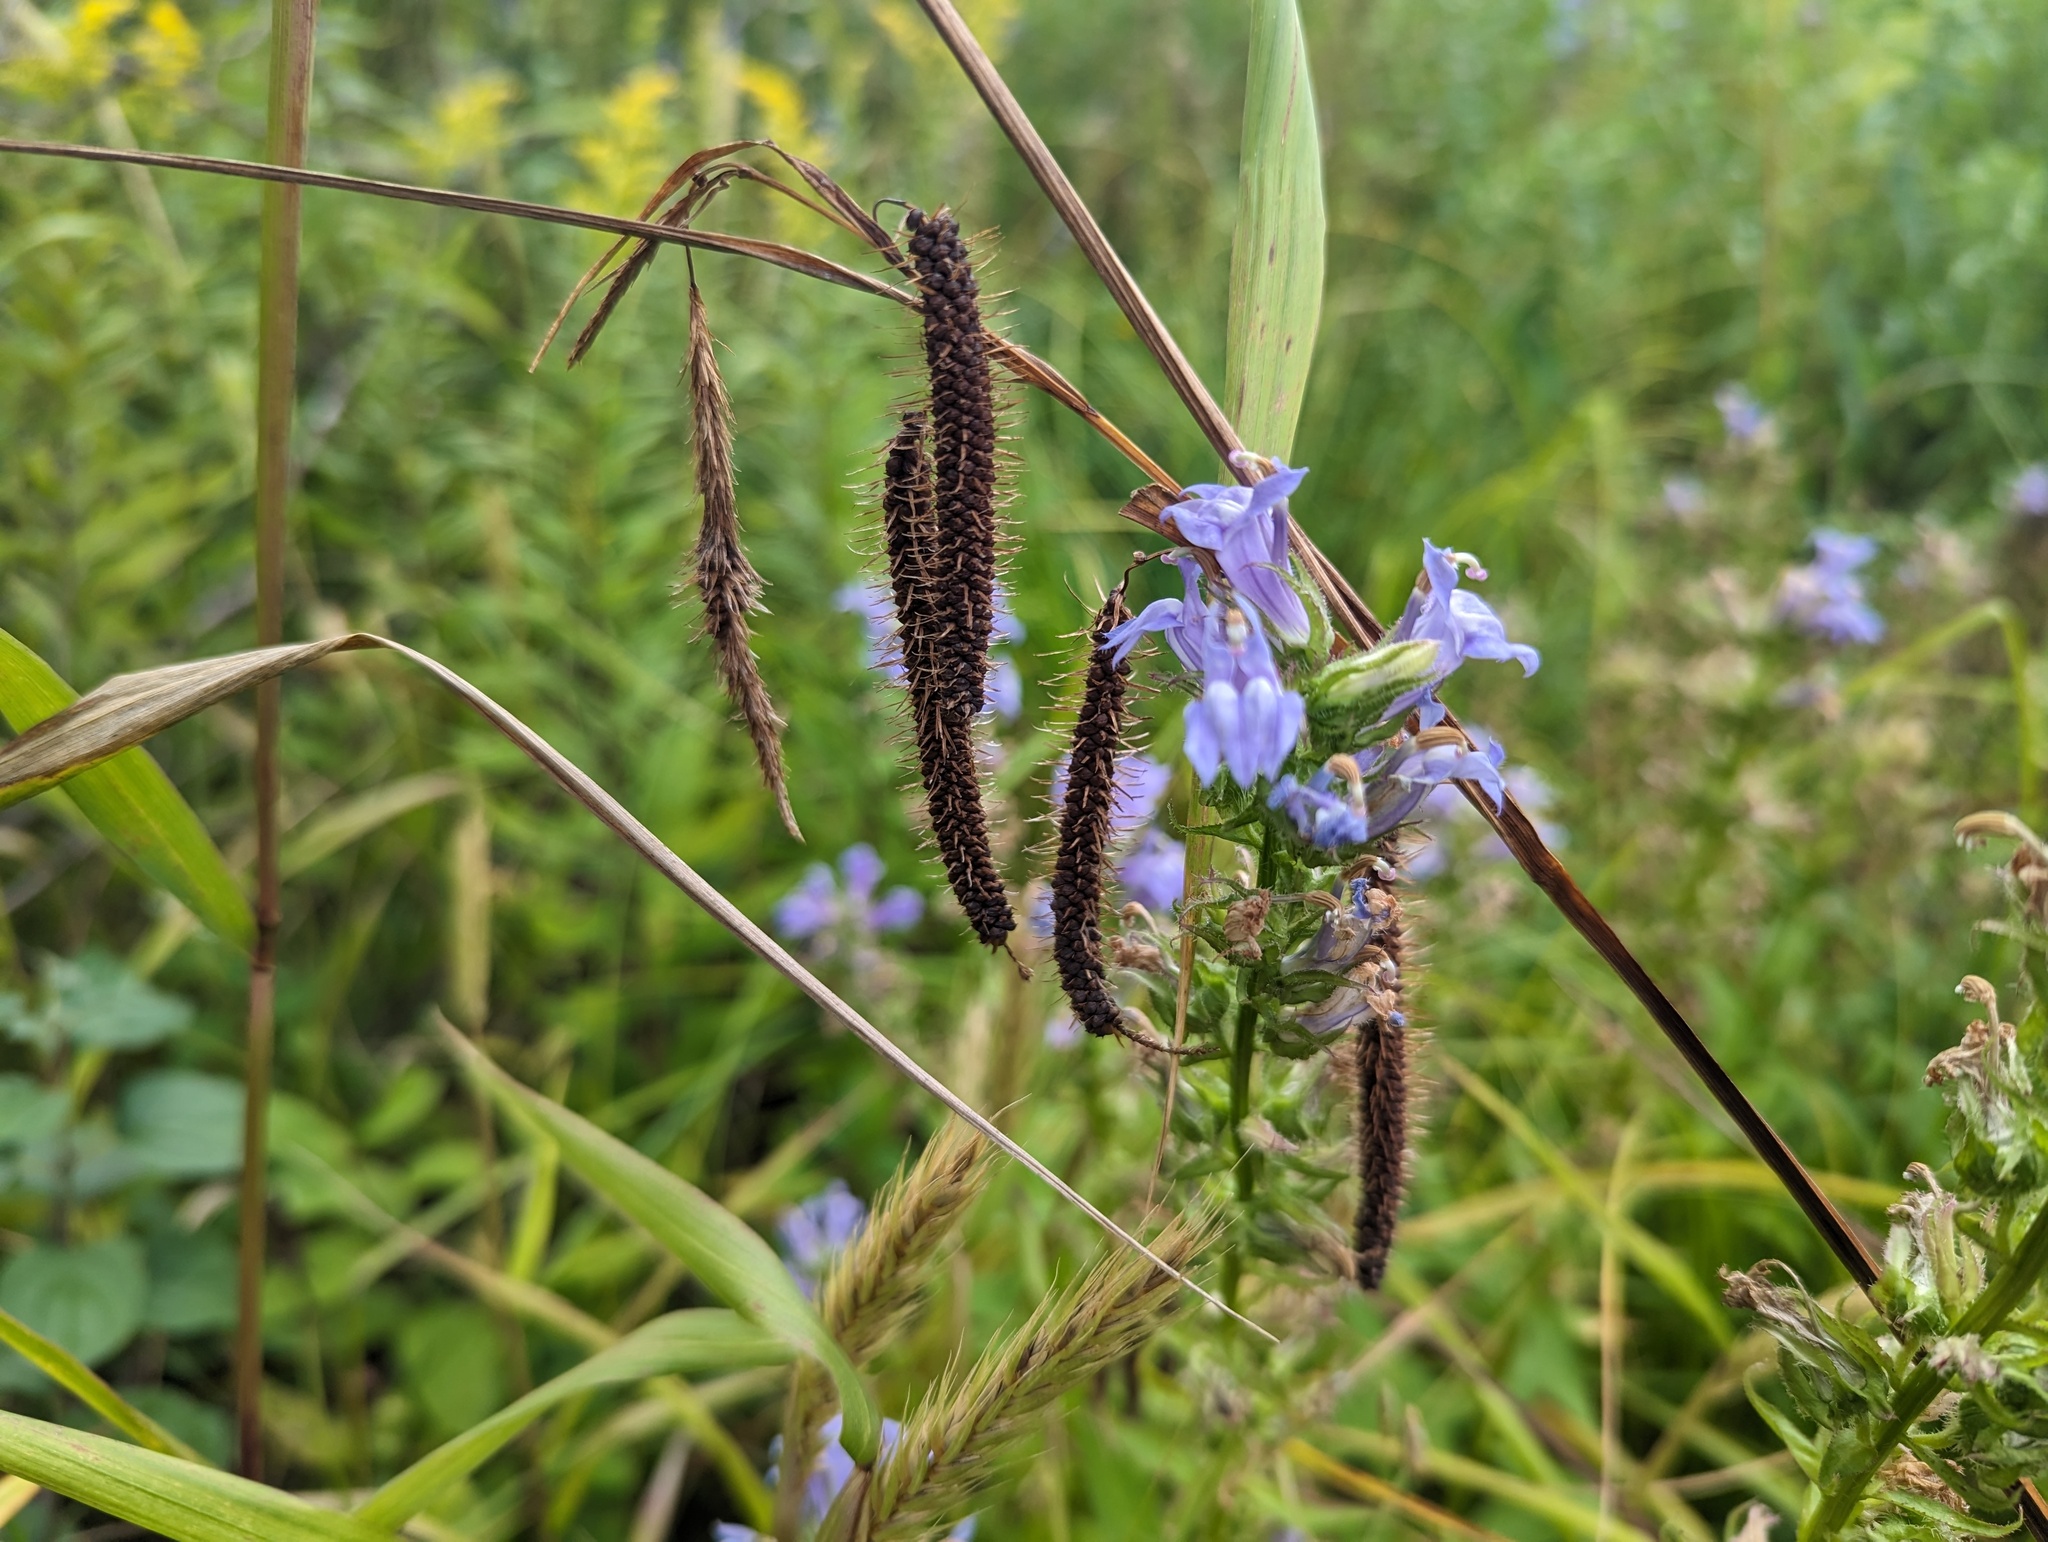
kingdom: Plantae
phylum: Tracheophyta
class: Liliopsida
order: Poales
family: Cyperaceae
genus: Carex
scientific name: Carex crinita
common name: Fringed sedge
